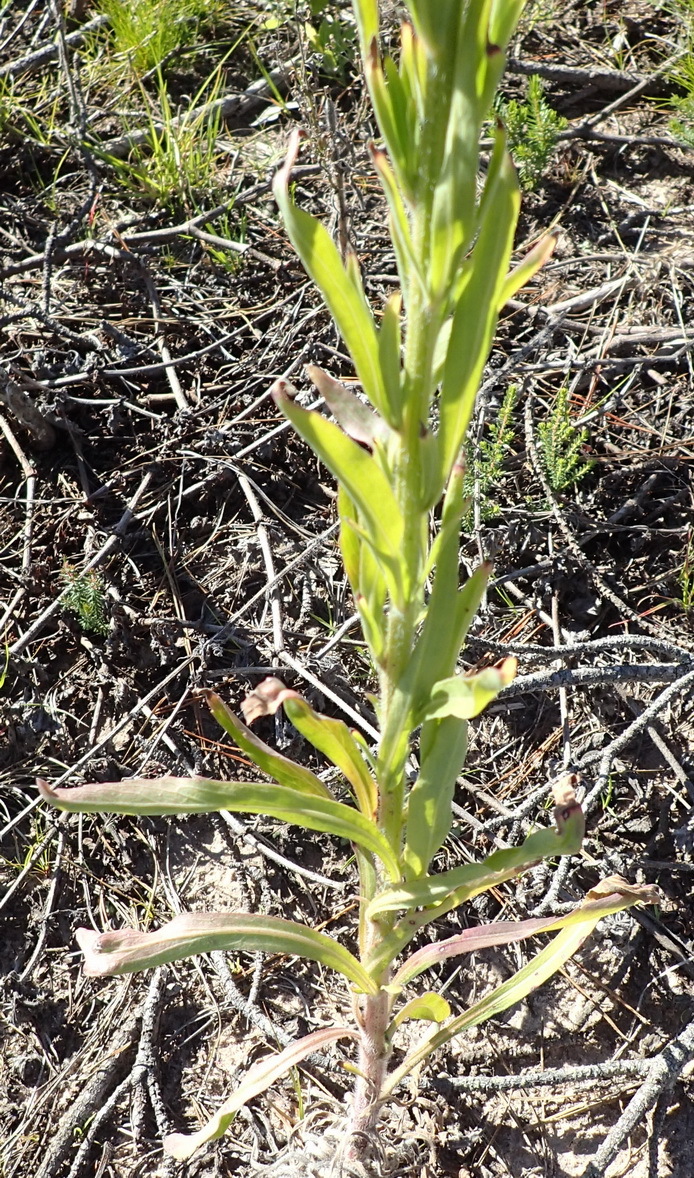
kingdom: Plantae
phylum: Tracheophyta
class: Magnoliopsida
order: Asterales
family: Asteraceae
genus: Erigeron
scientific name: Erigeron sumatrensis
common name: Daisy
